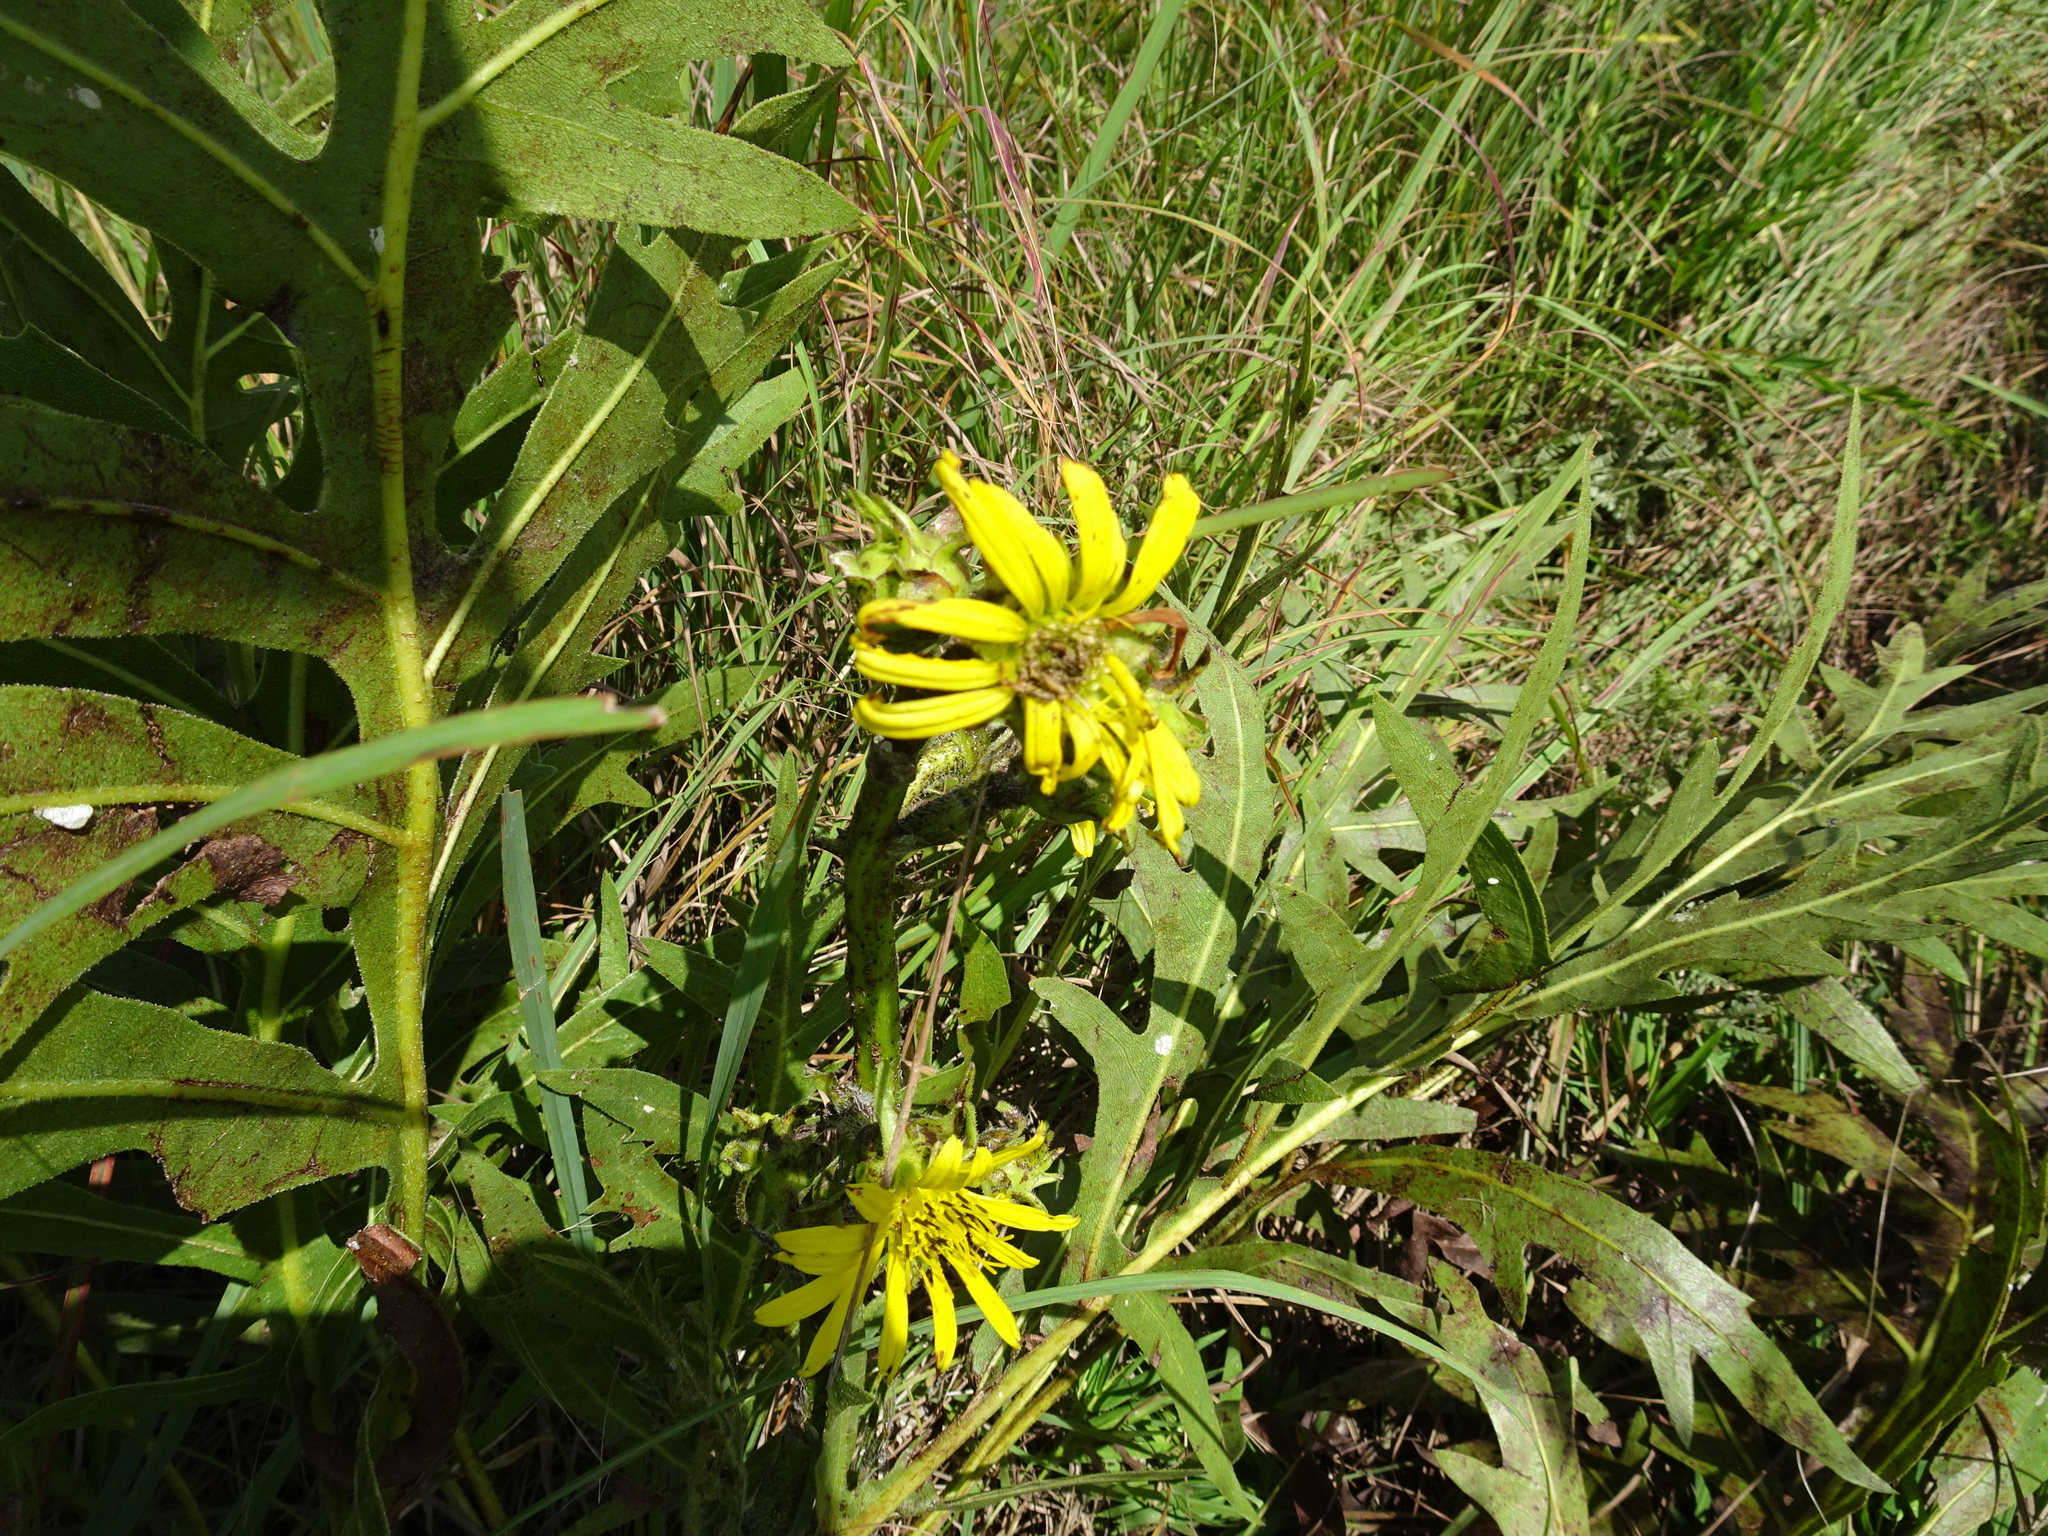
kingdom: Plantae
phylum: Tracheophyta
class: Magnoliopsida
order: Asterales
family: Asteraceae
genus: Silphium
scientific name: Silphium laciniatum
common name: Polarplant
